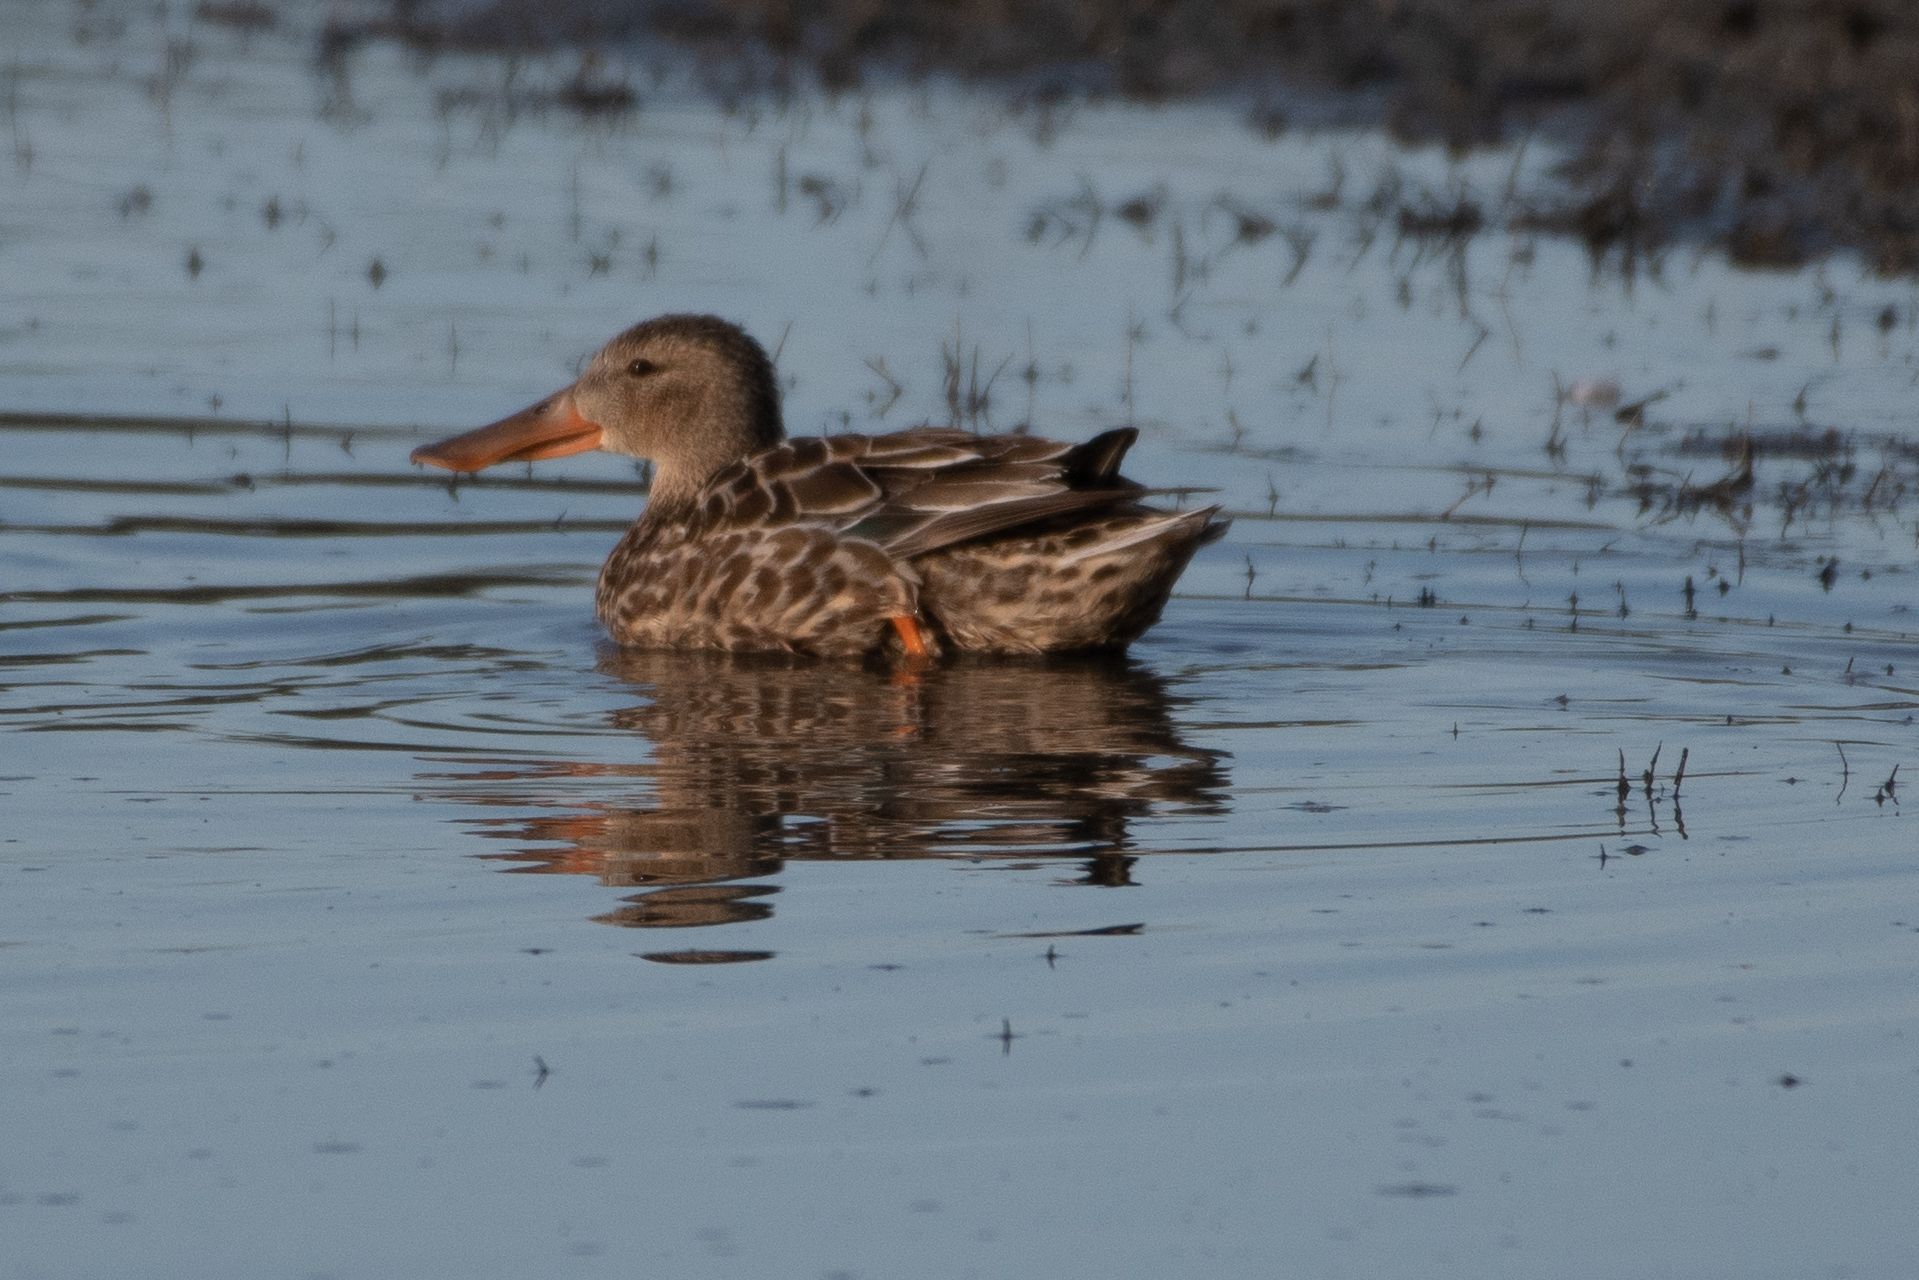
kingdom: Animalia
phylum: Chordata
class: Aves
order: Anseriformes
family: Anatidae
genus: Spatula
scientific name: Spatula clypeata
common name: Northern shoveler
